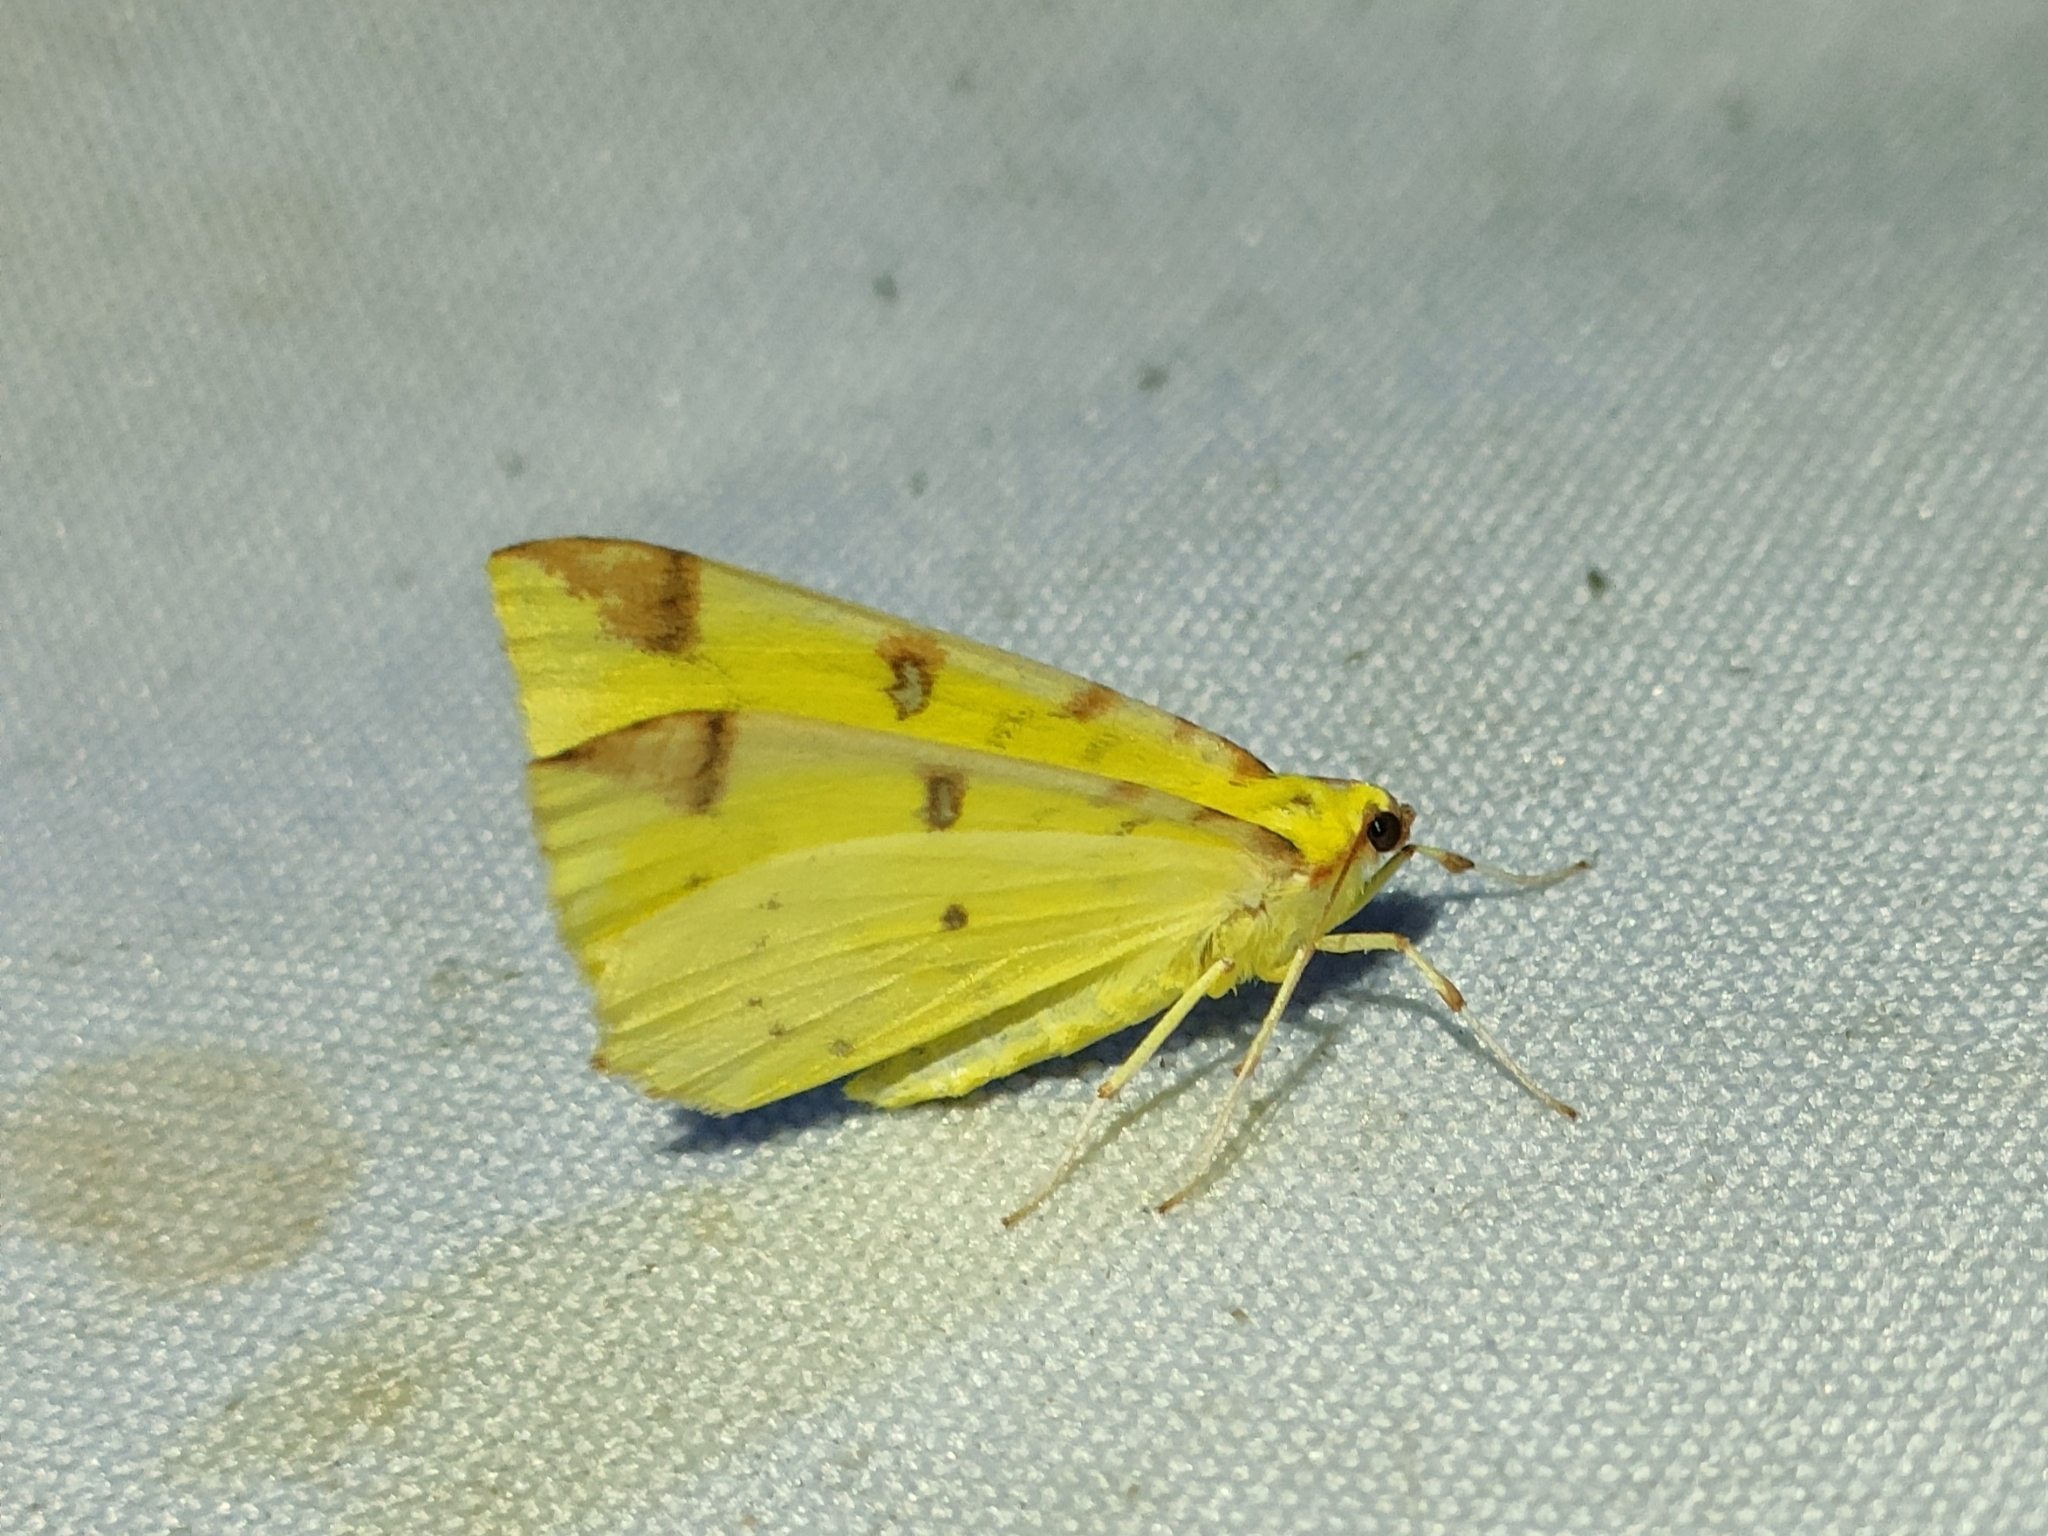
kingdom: Animalia
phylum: Arthropoda
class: Insecta
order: Lepidoptera
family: Geometridae
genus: Opisthograptis
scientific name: Opisthograptis luteolata
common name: Brimstone moth
